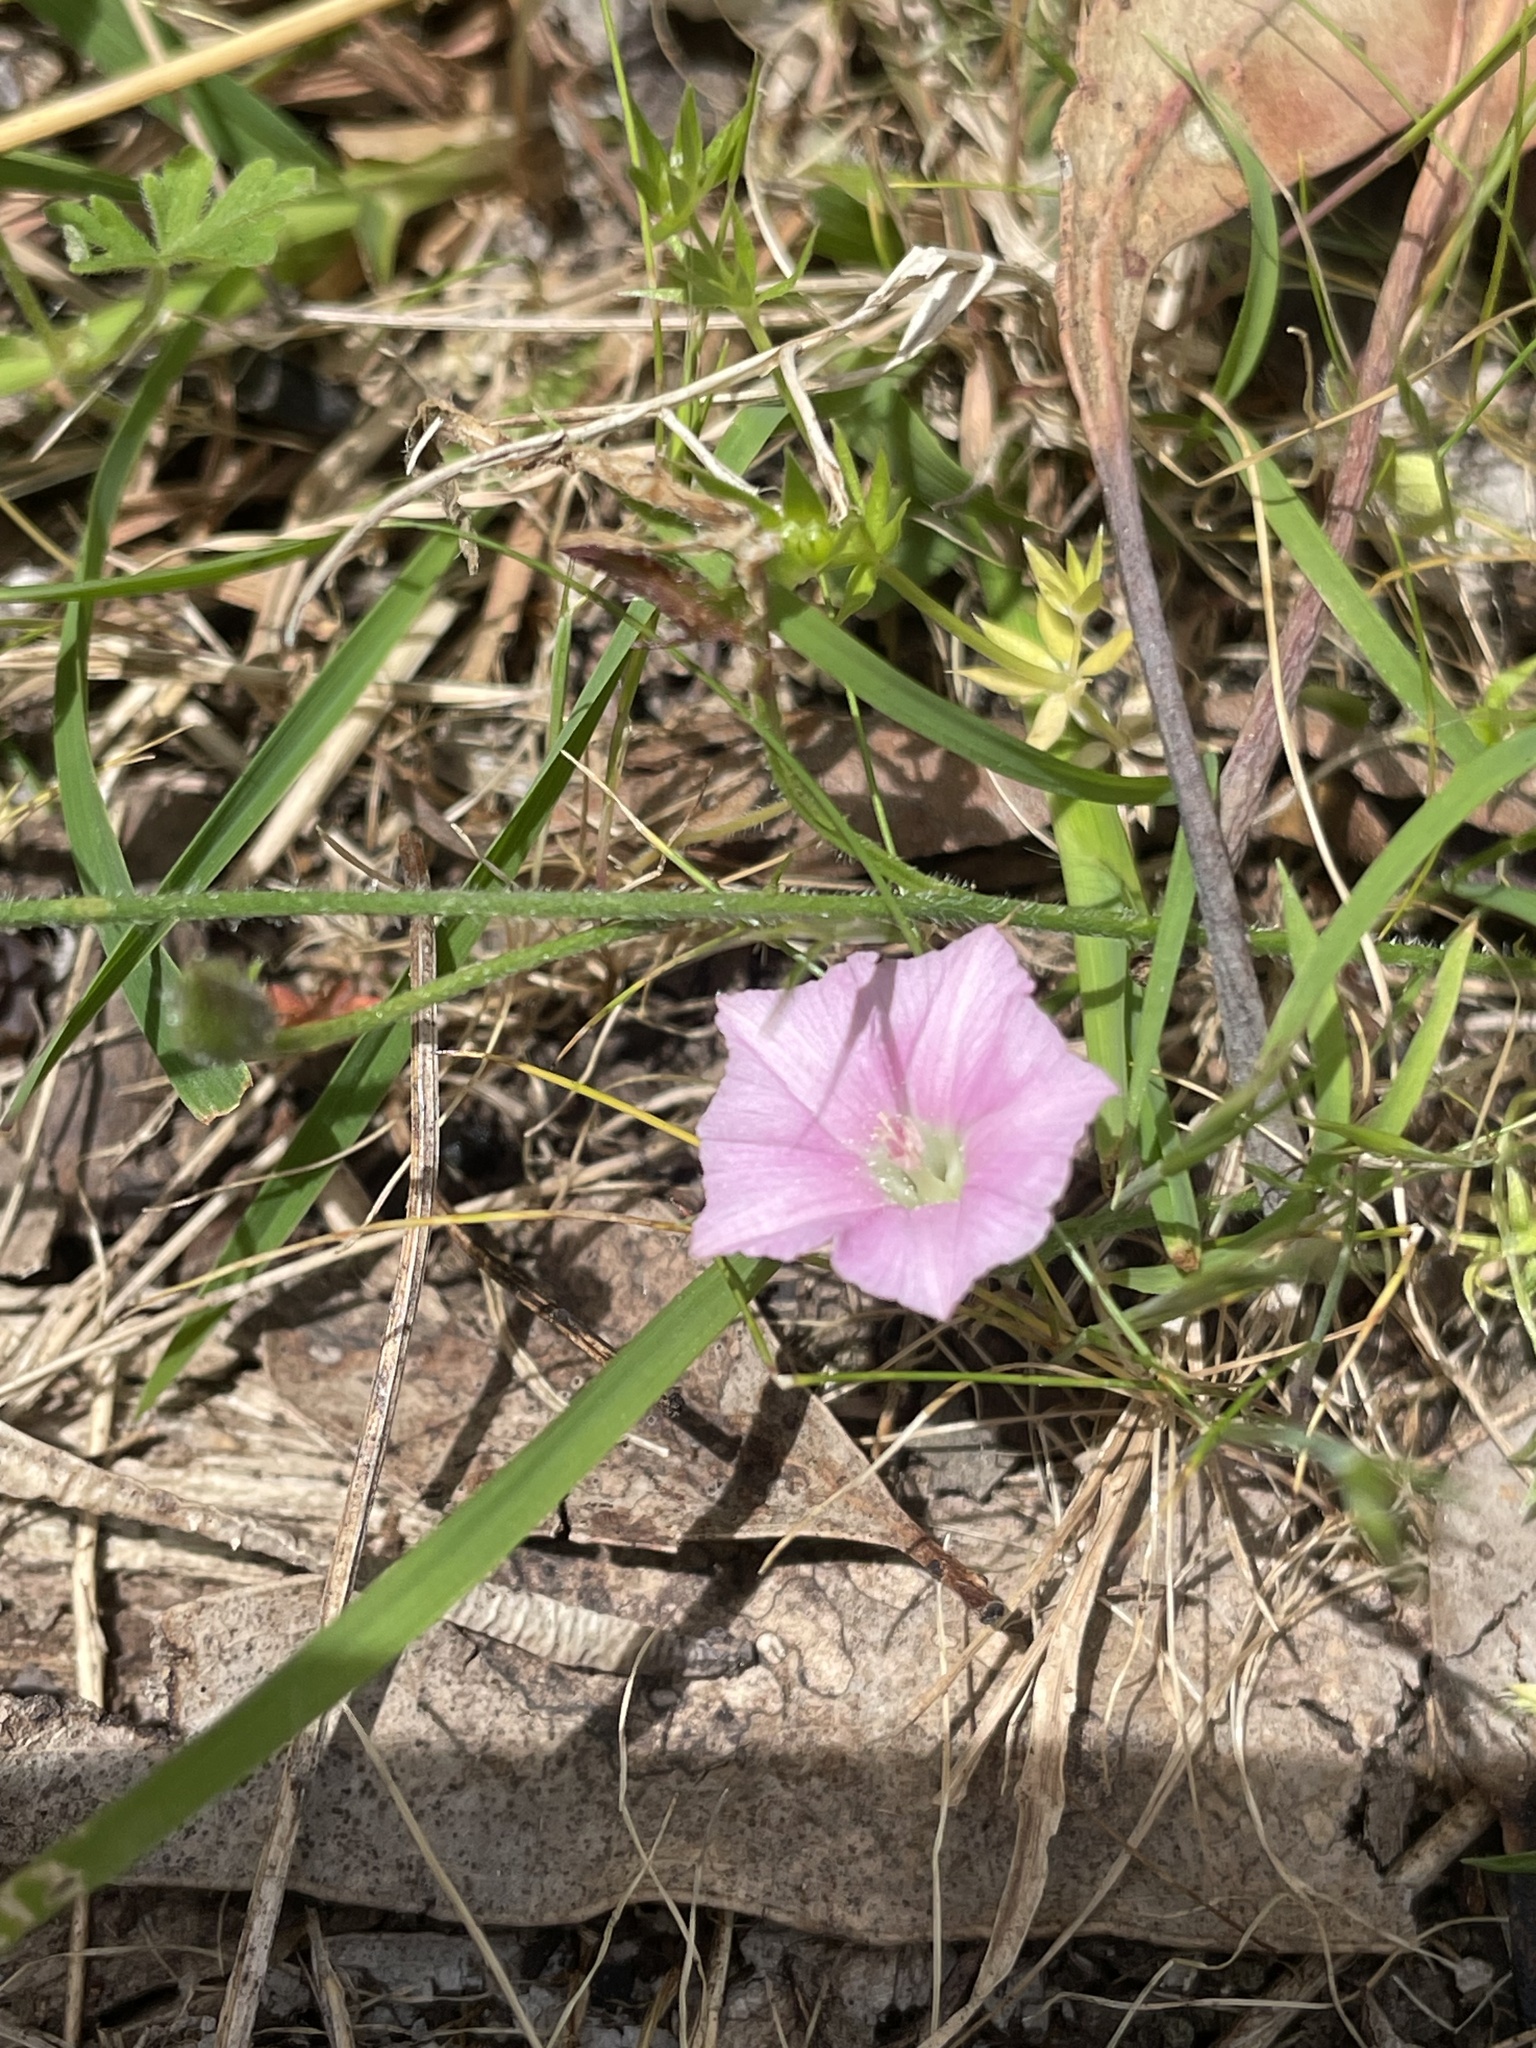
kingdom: Plantae
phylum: Tracheophyta
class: Magnoliopsida
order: Solanales
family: Convolvulaceae
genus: Convolvulus
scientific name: Convolvulus angustissimus
